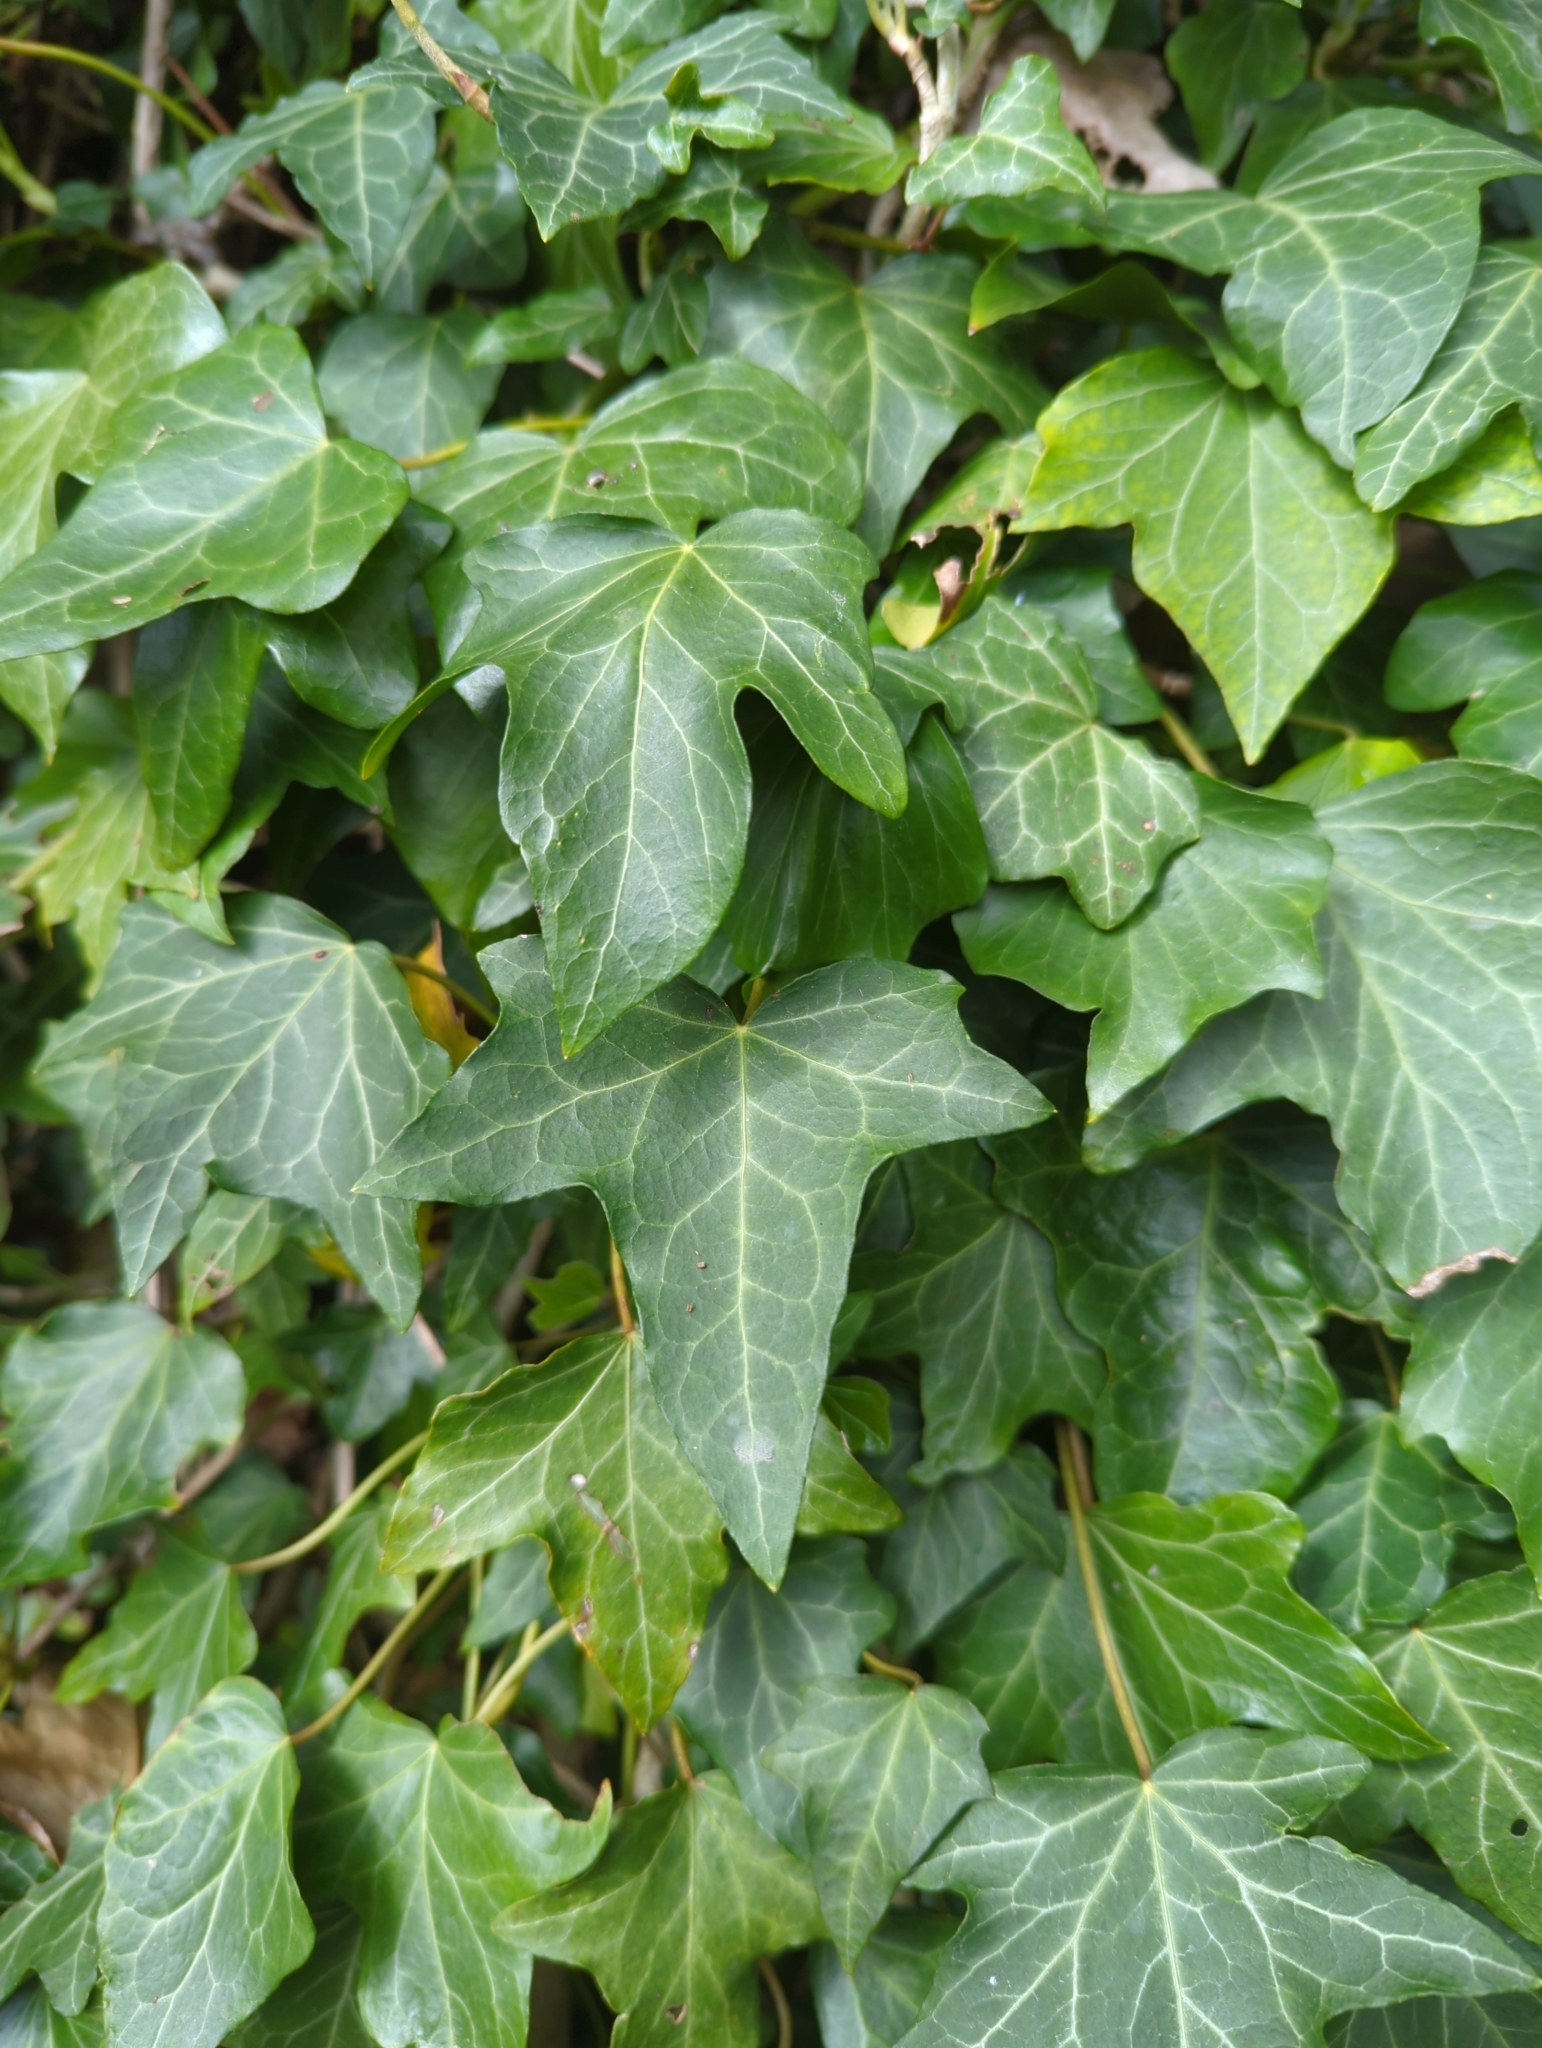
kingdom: Plantae
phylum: Tracheophyta
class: Magnoliopsida
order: Apiales
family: Araliaceae
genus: Hedera
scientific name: Hedera helix
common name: Ivy
